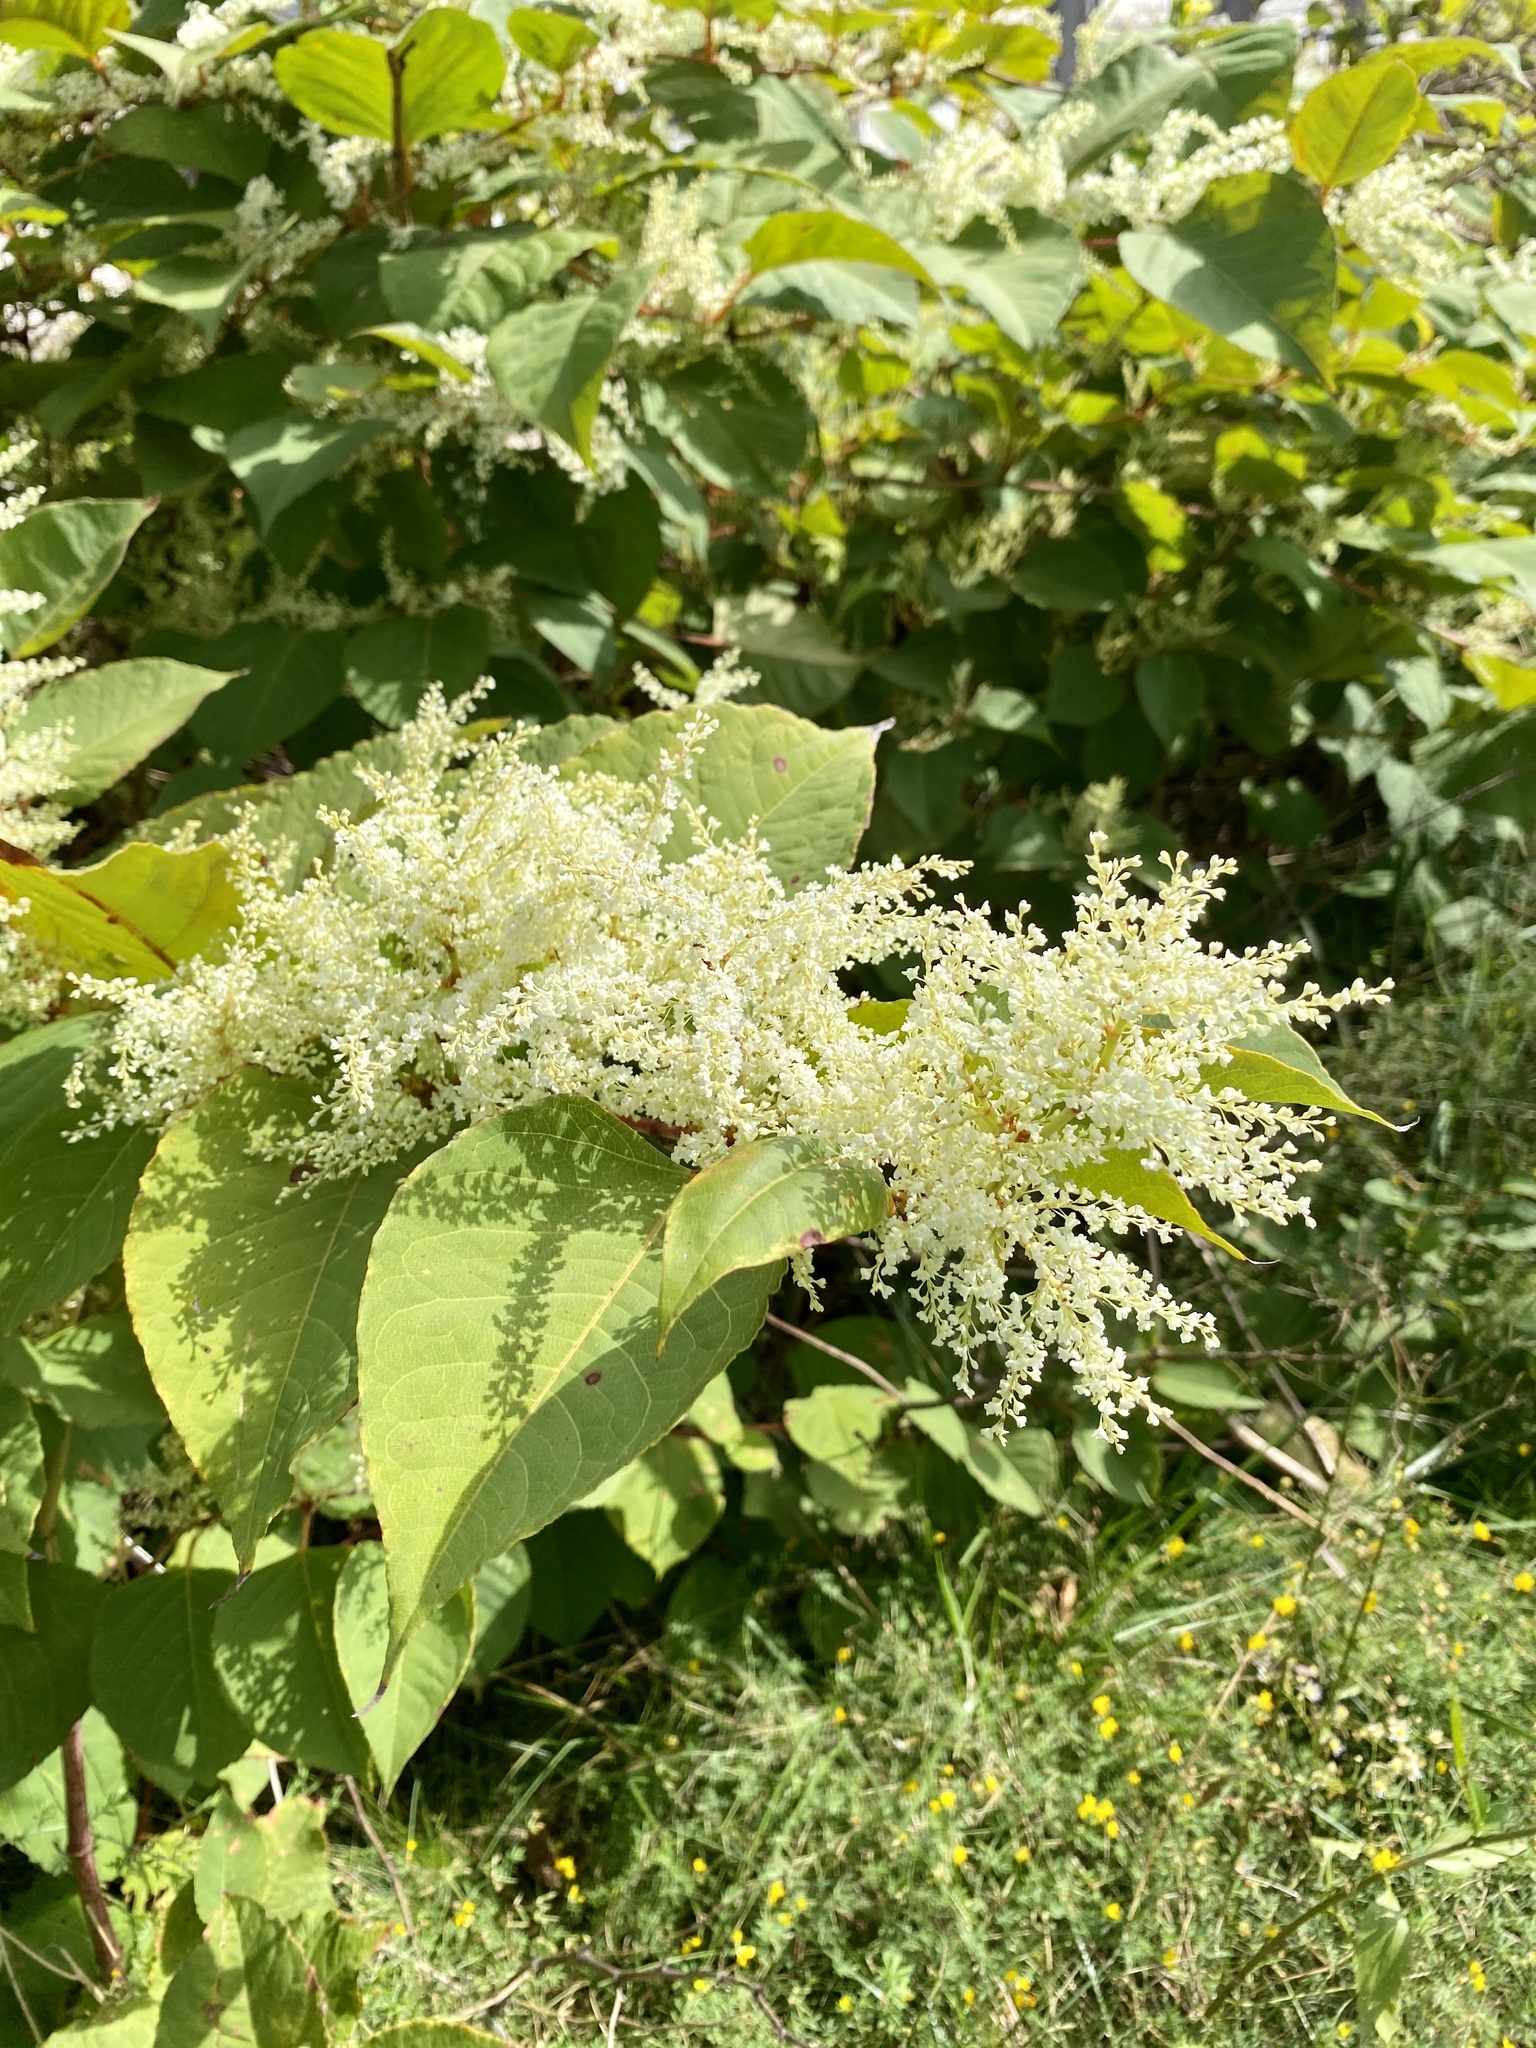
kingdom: Plantae
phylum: Tracheophyta
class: Magnoliopsida
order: Caryophyllales
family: Polygonaceae
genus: Reynoutria
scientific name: Reynoutria japonica
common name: Japanese knotweed
